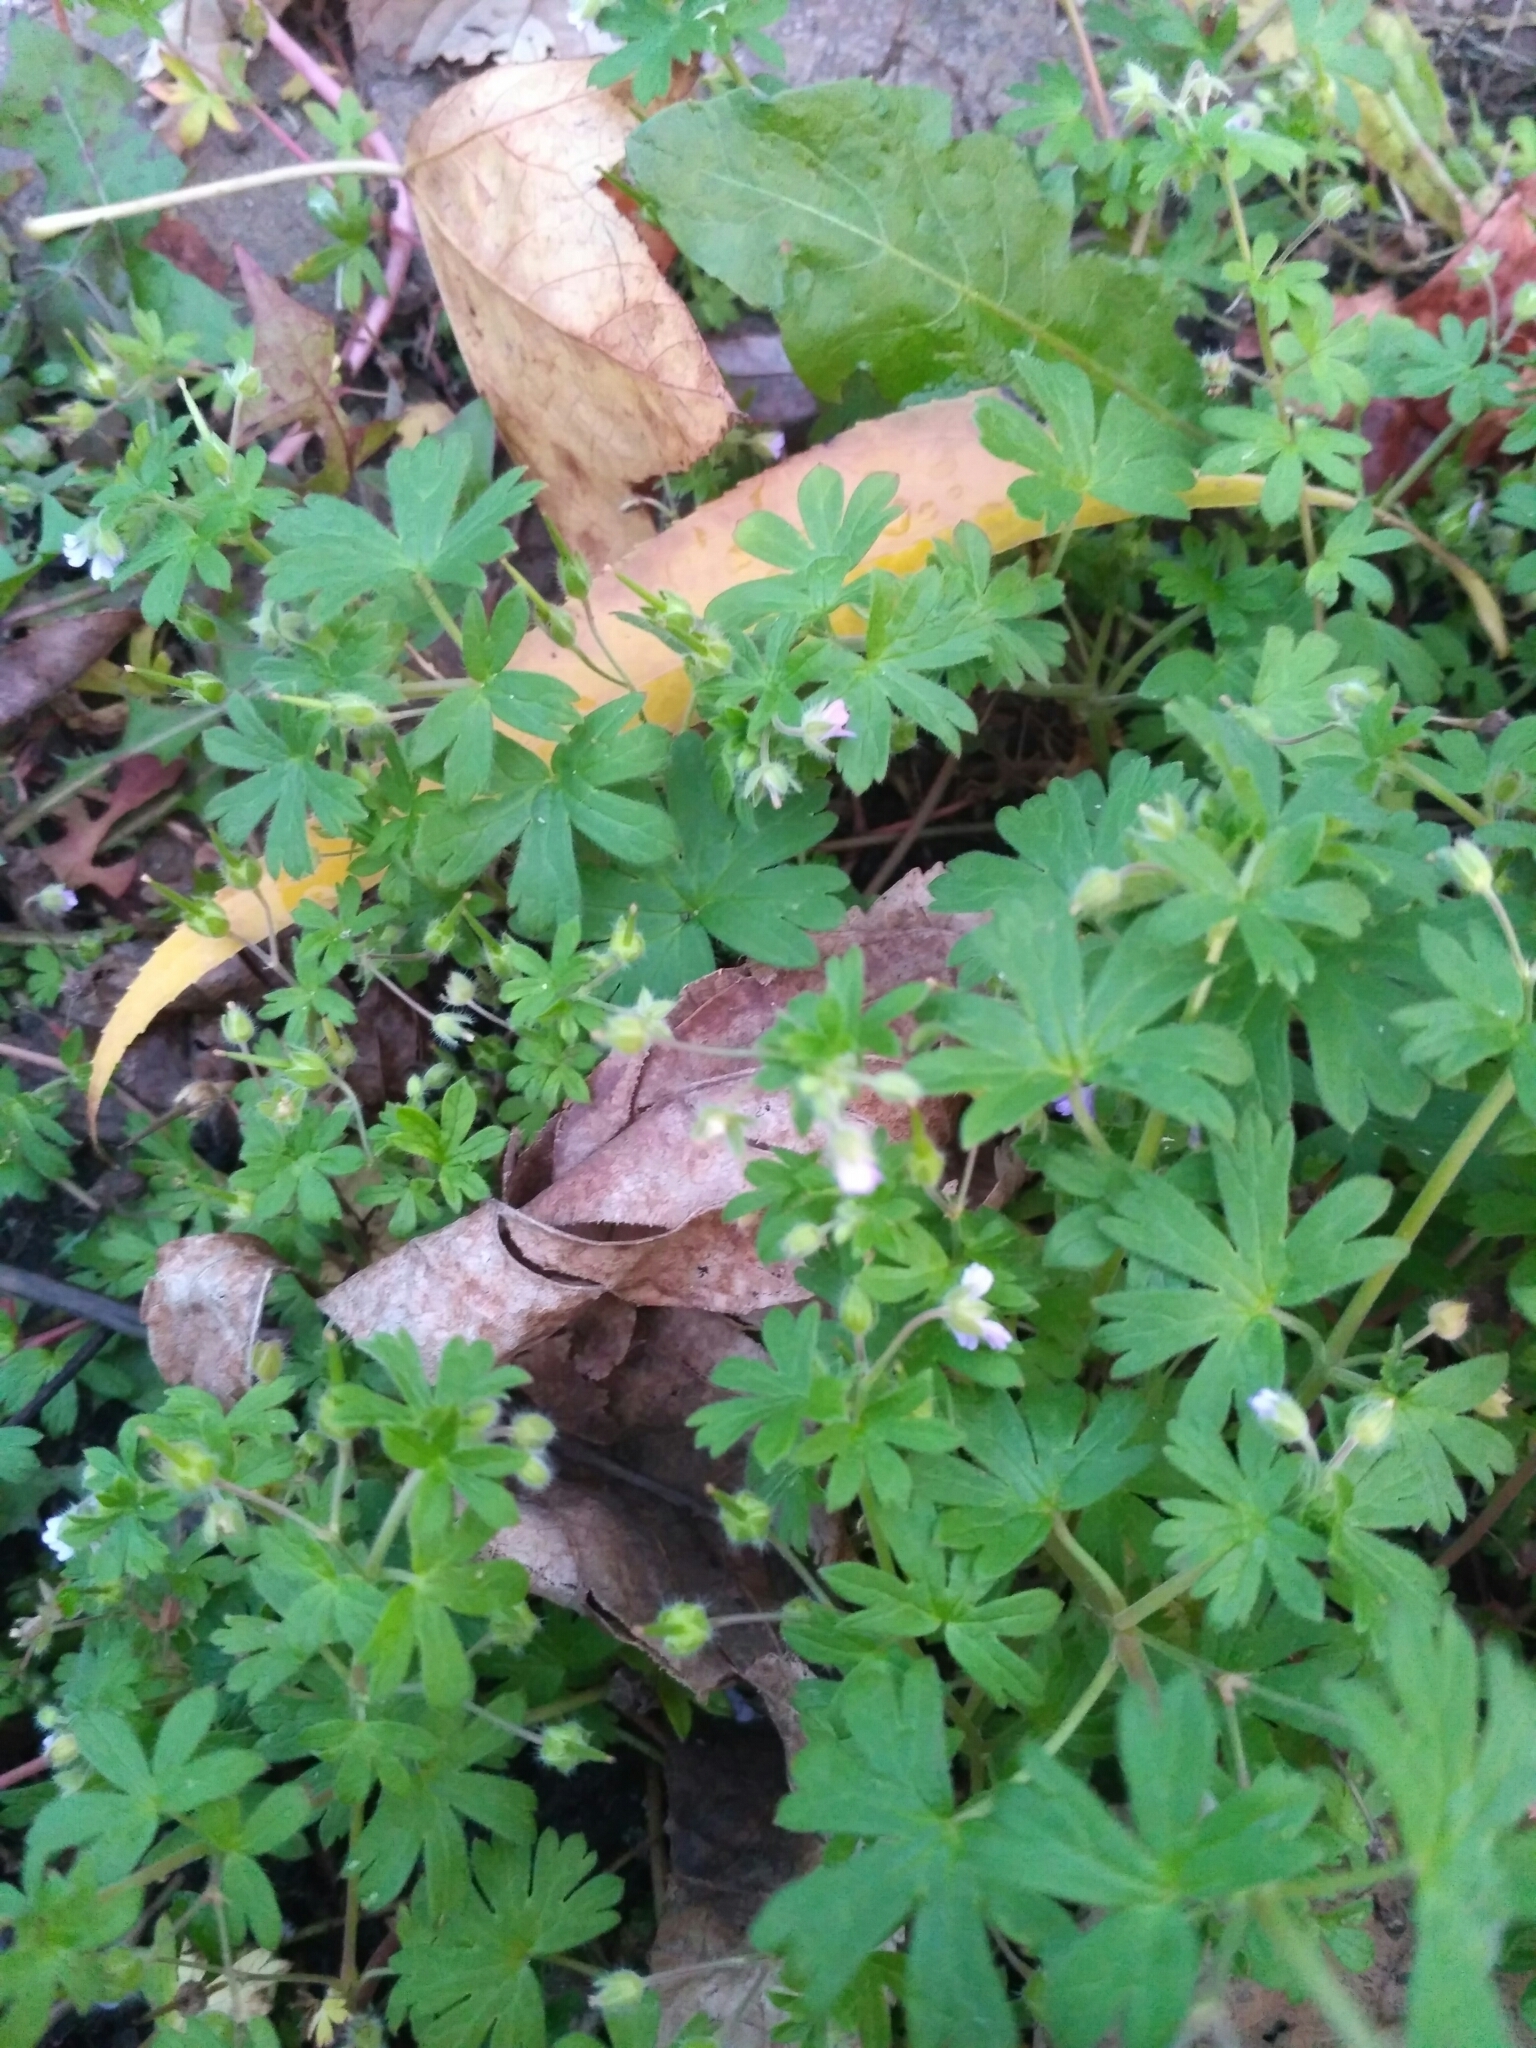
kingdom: Plantae
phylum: Tracheophyta
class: Magnoliopsida
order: Geraniales
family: Geraniaceae
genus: Geranium
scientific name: Geranium pusillum
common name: Small geranium
